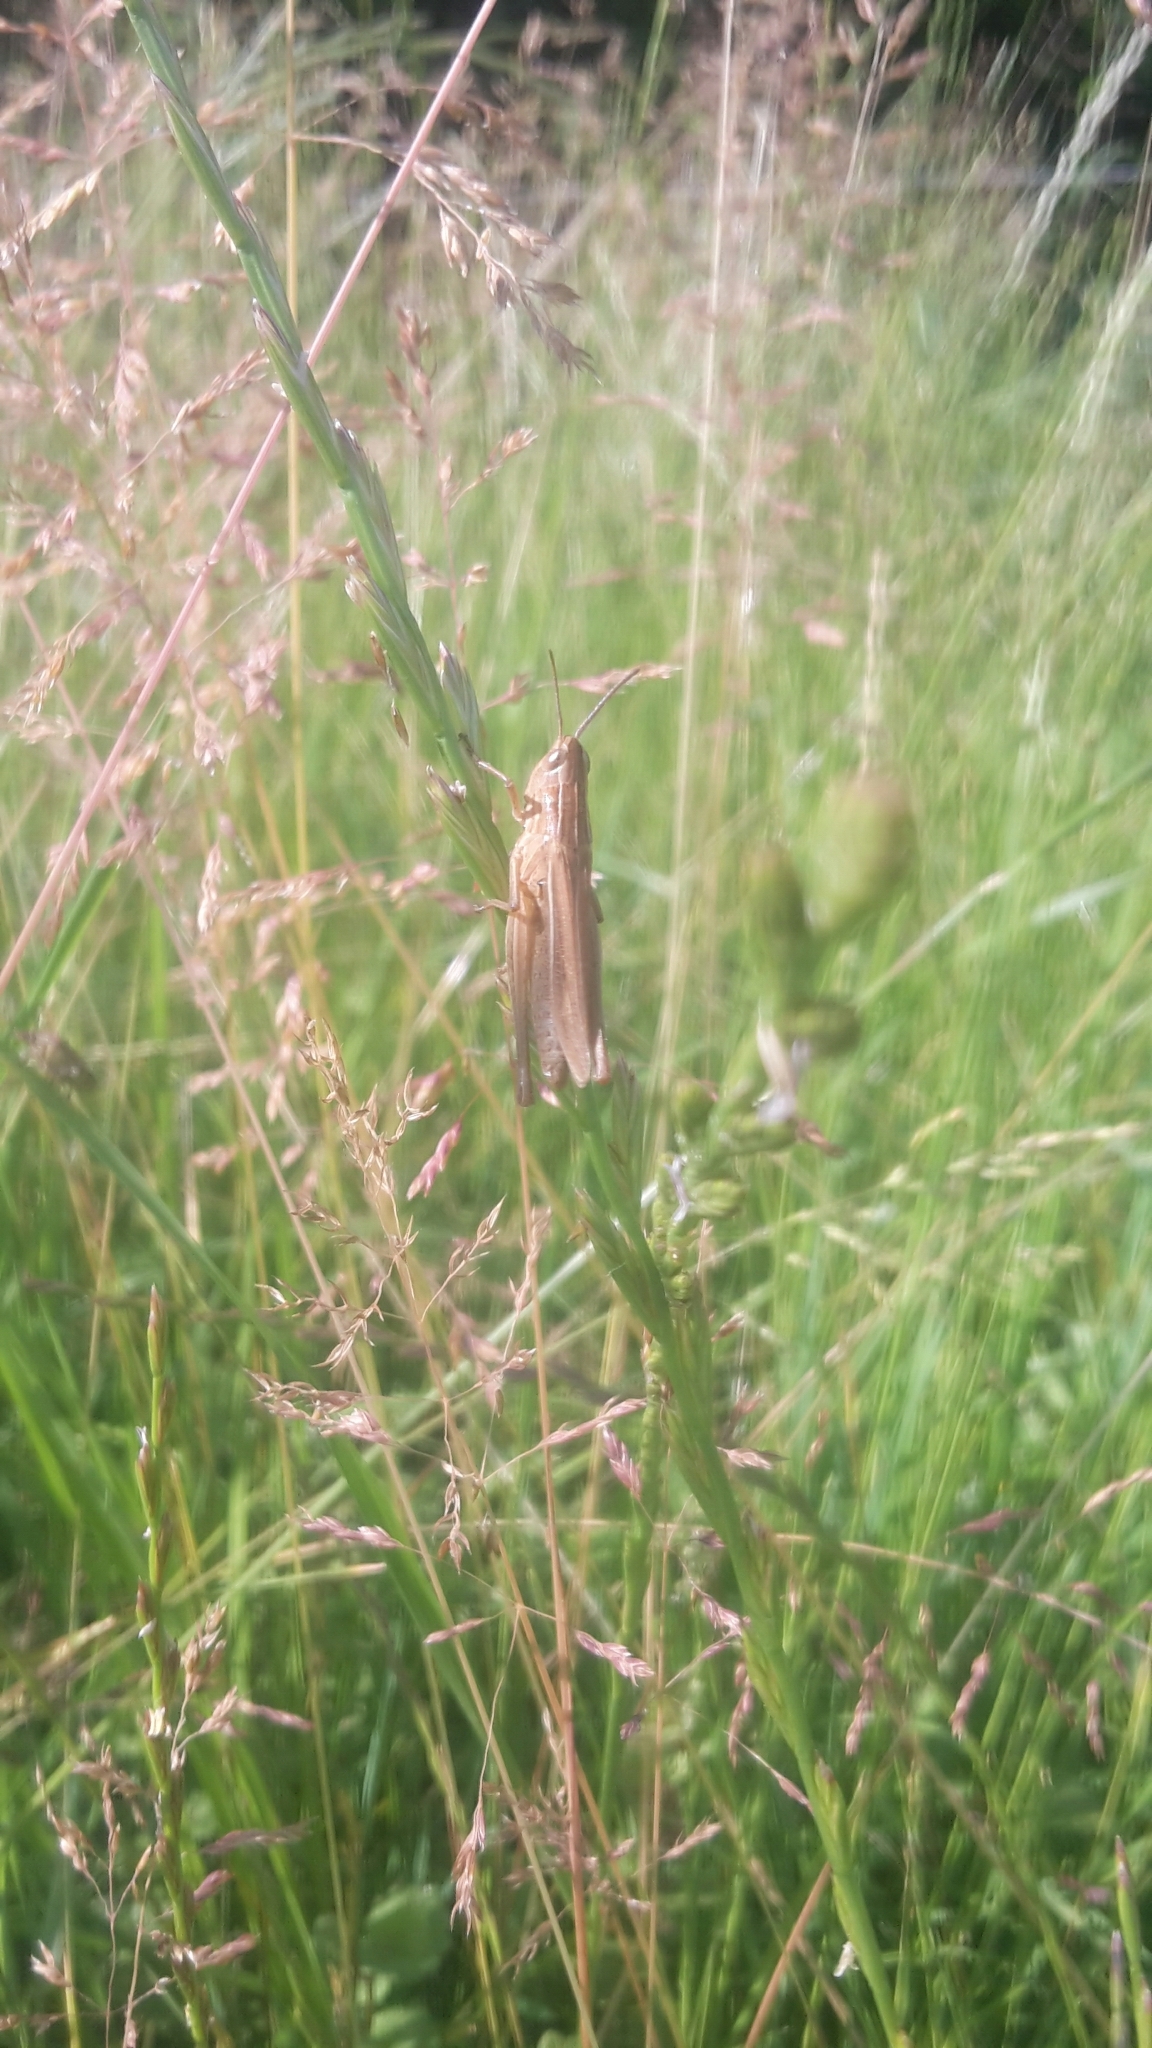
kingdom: Animalia
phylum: Arthropoda
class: Insecta
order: Orthoptera
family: Acrididae
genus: Chorthippus
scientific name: Chorthippus albomarginatus
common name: Lesser marsh grasshopper
